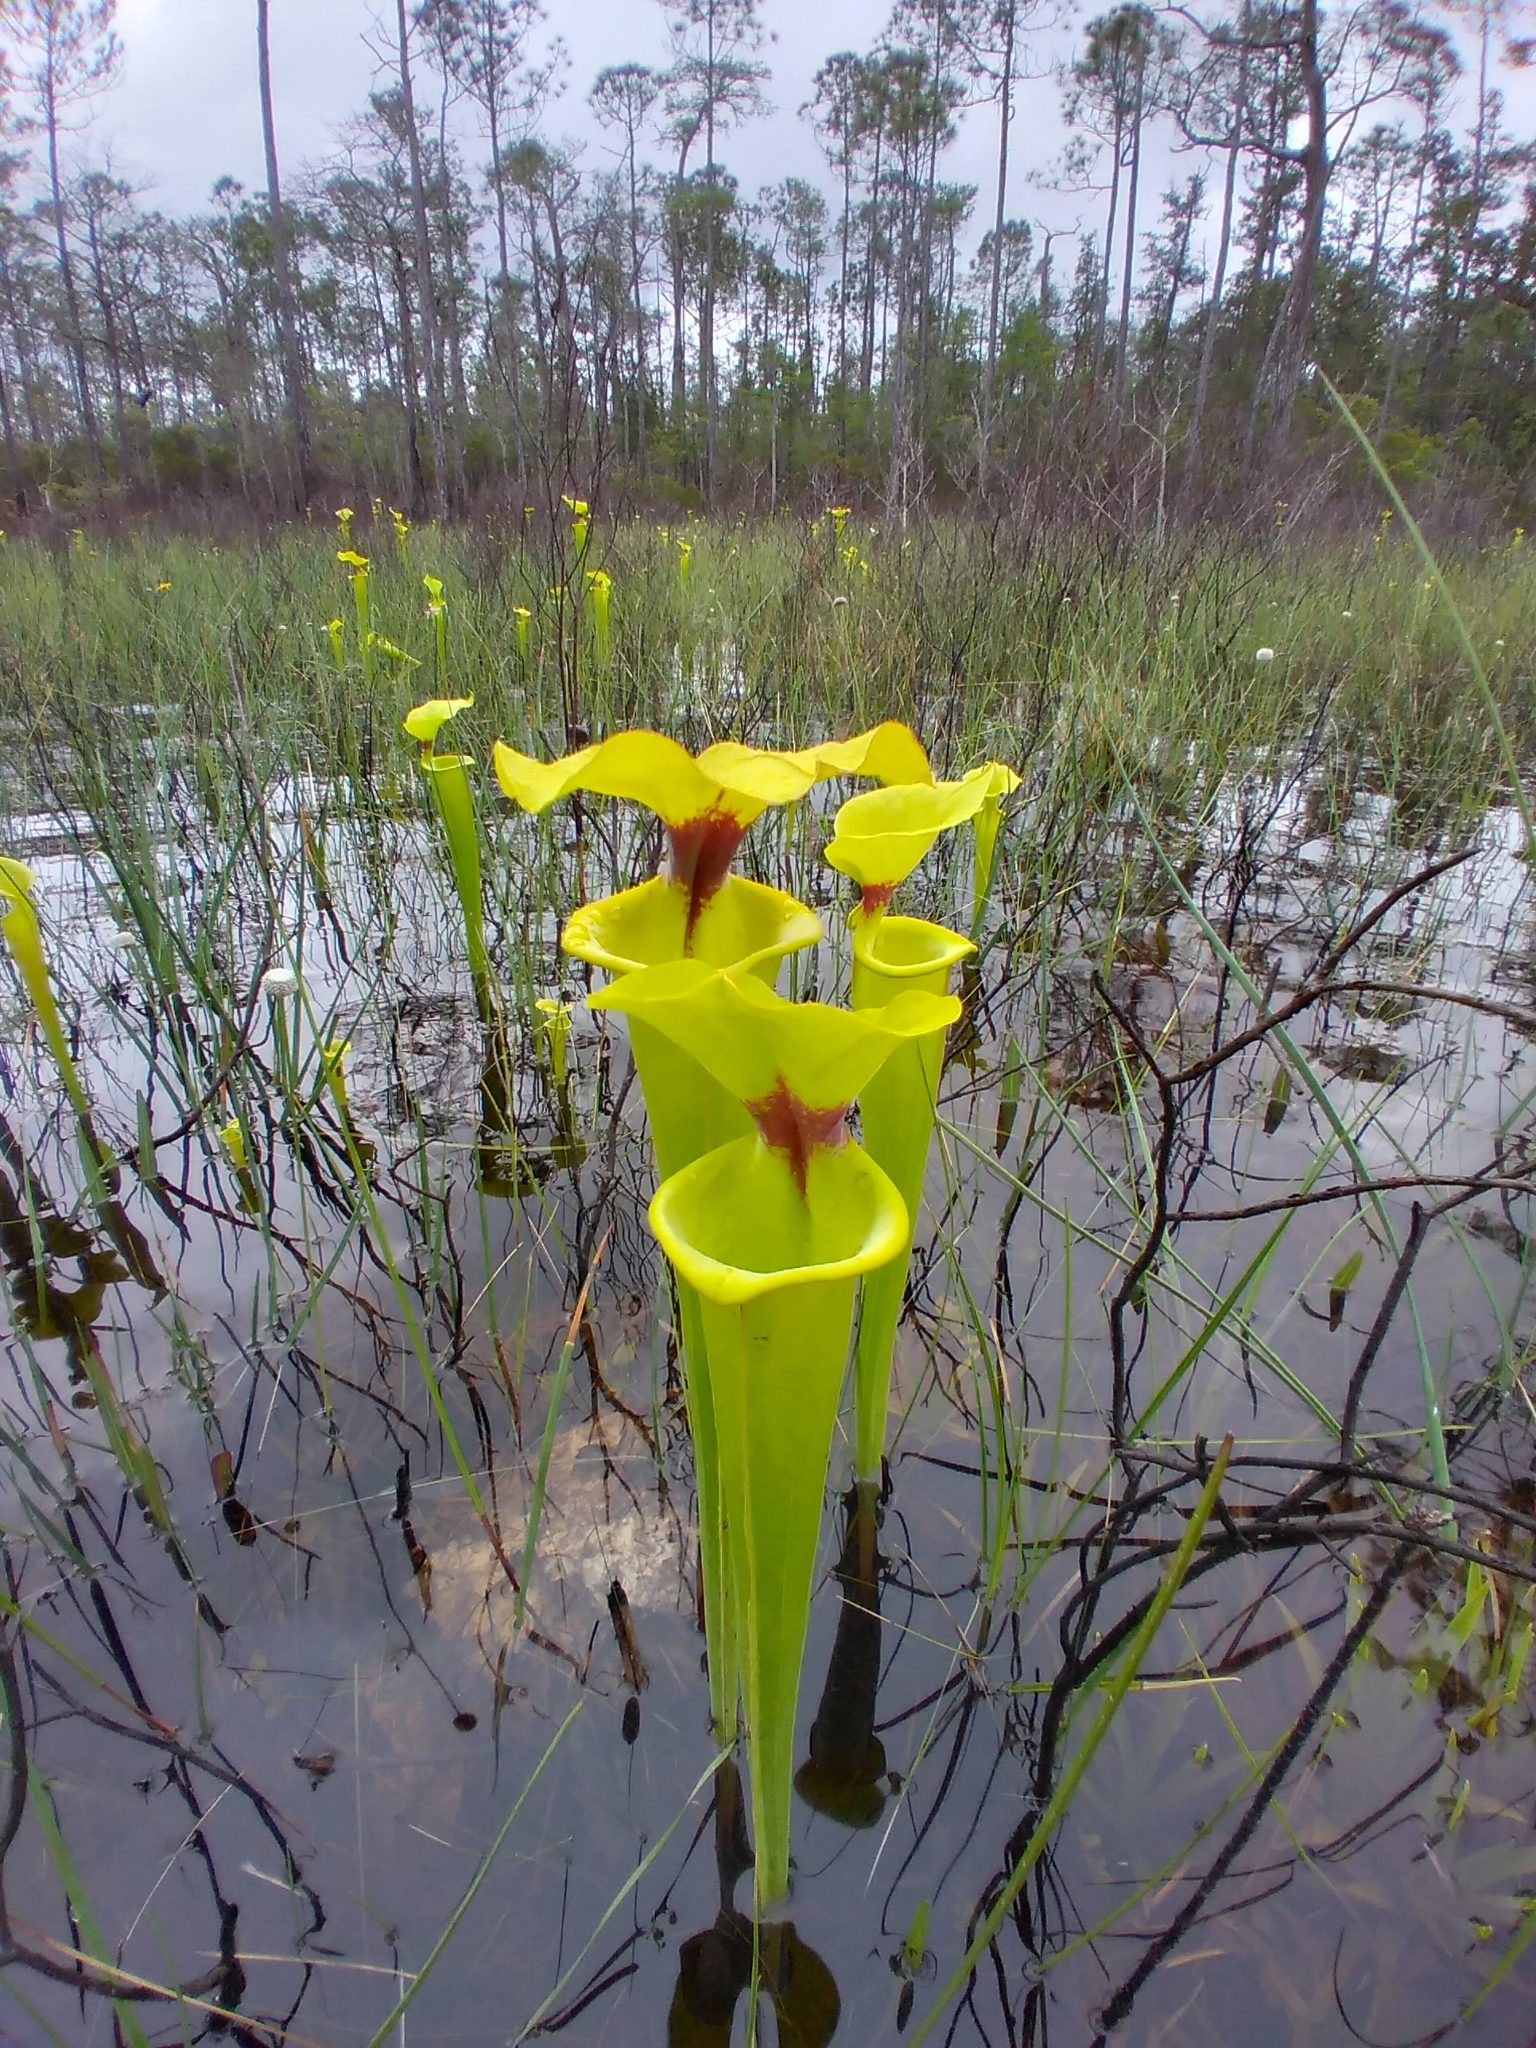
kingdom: Plantae
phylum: Tracheophyta
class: Magnoliopsida
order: Ericales
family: Sarraceniaceae
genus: Sarracenia
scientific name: Sarracenia flava
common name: Trumpets
